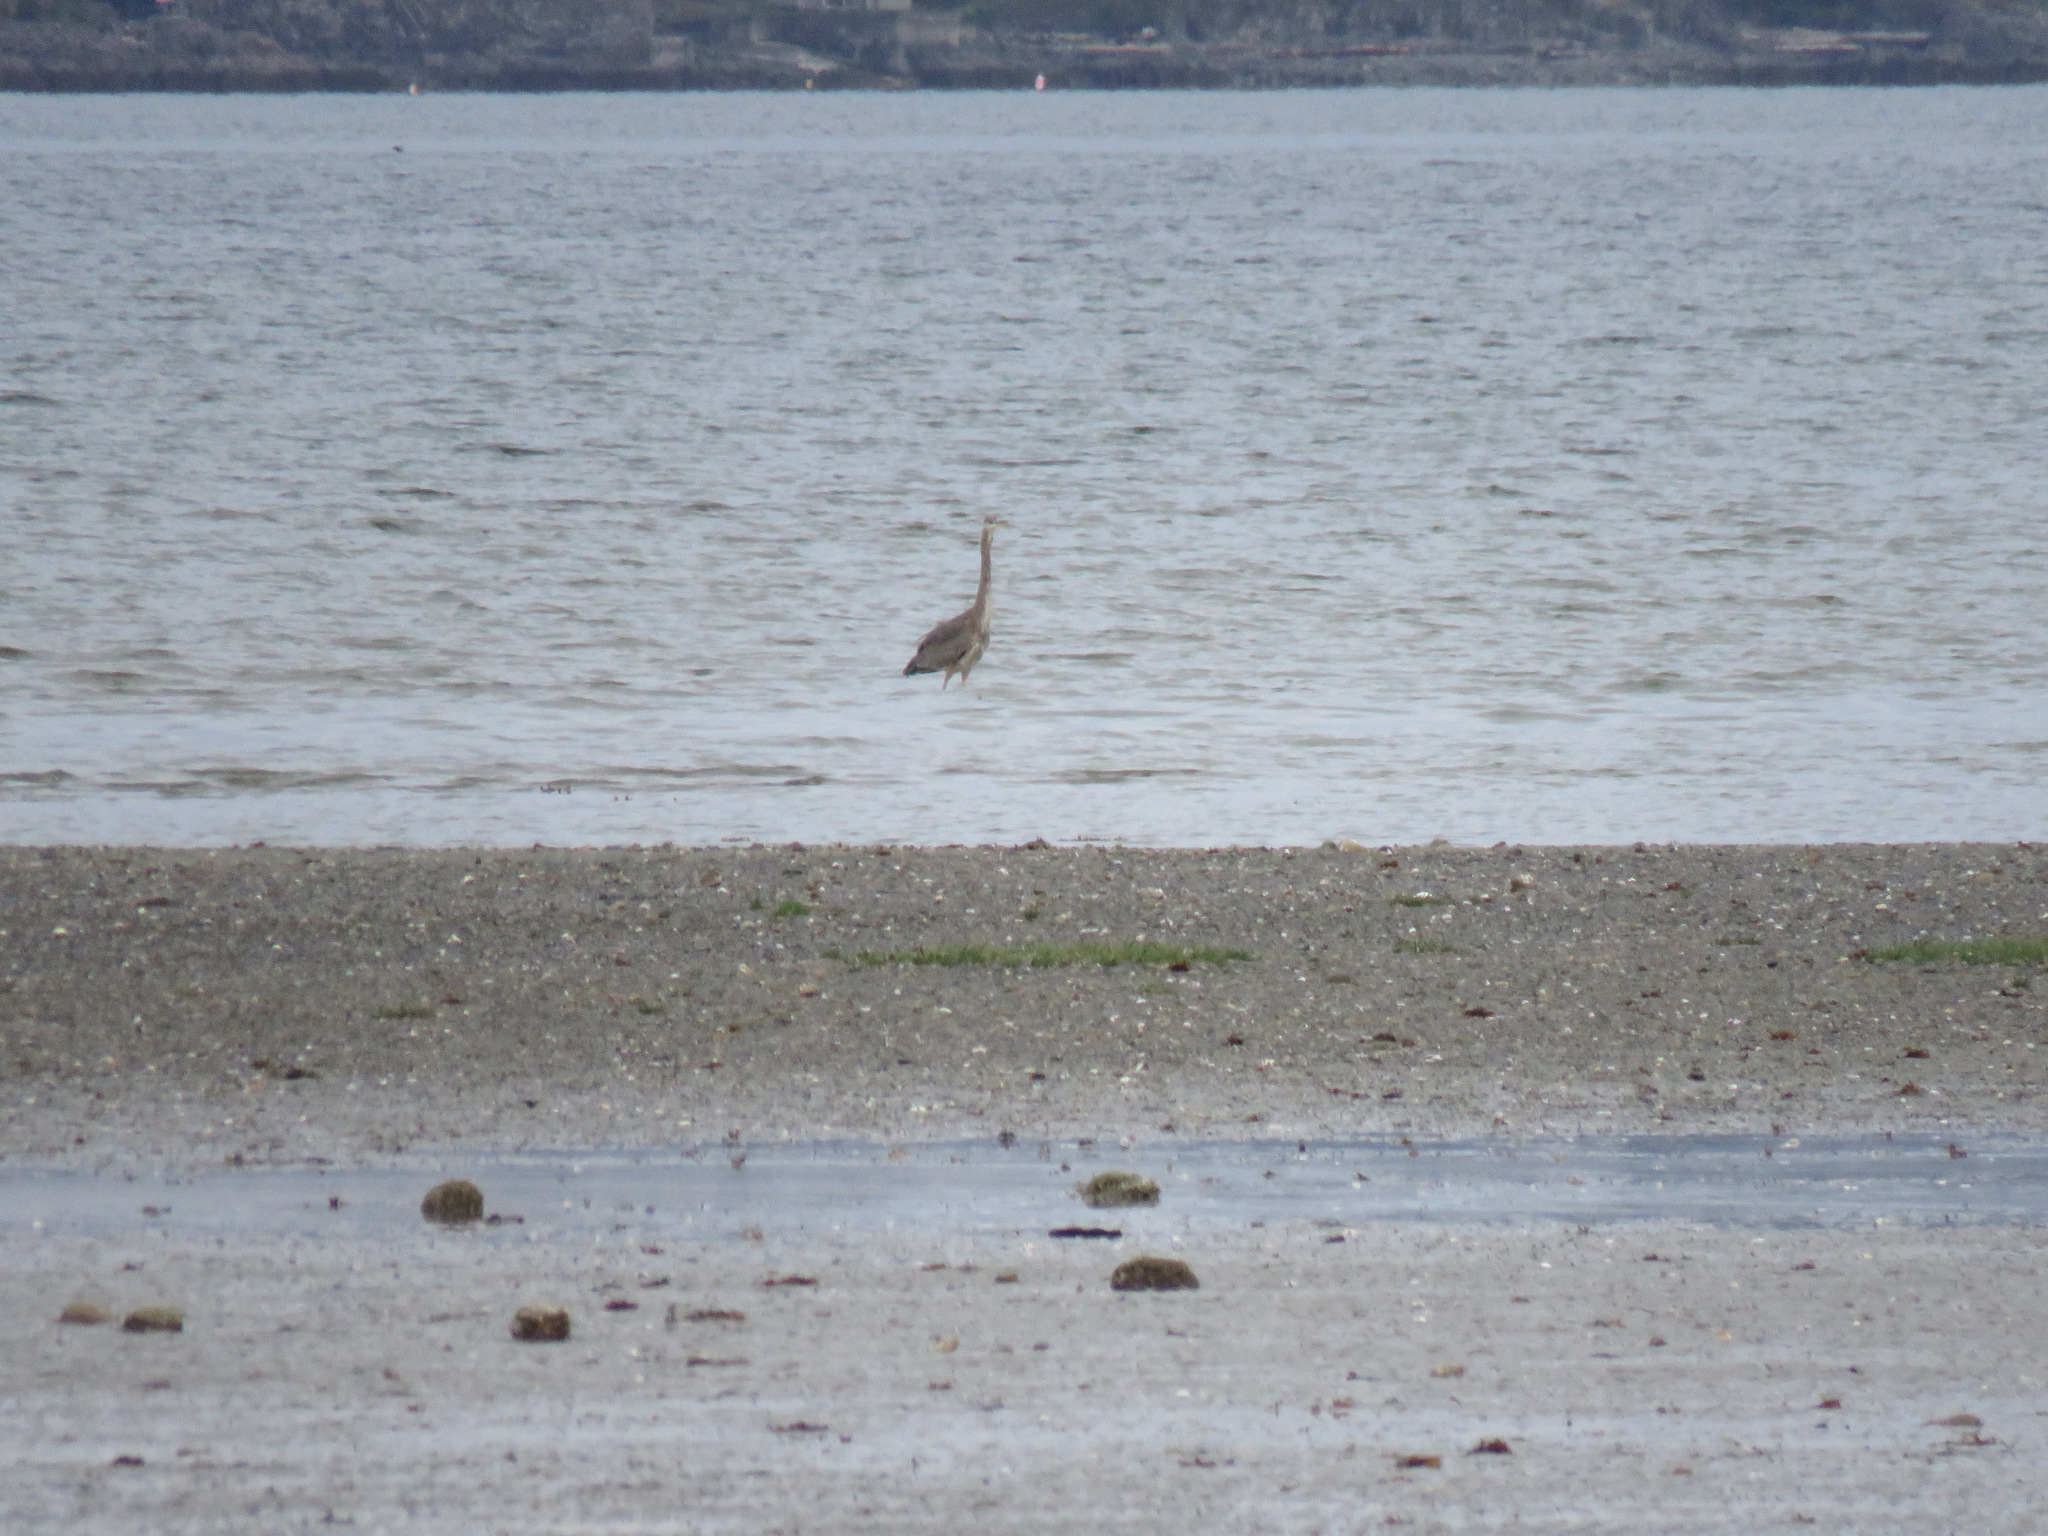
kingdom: Animalia
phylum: Chordata
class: Aves
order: Pelecaniformes
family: Ardeidae
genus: Ardea
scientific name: Ardea herodias
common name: Great blue heron
